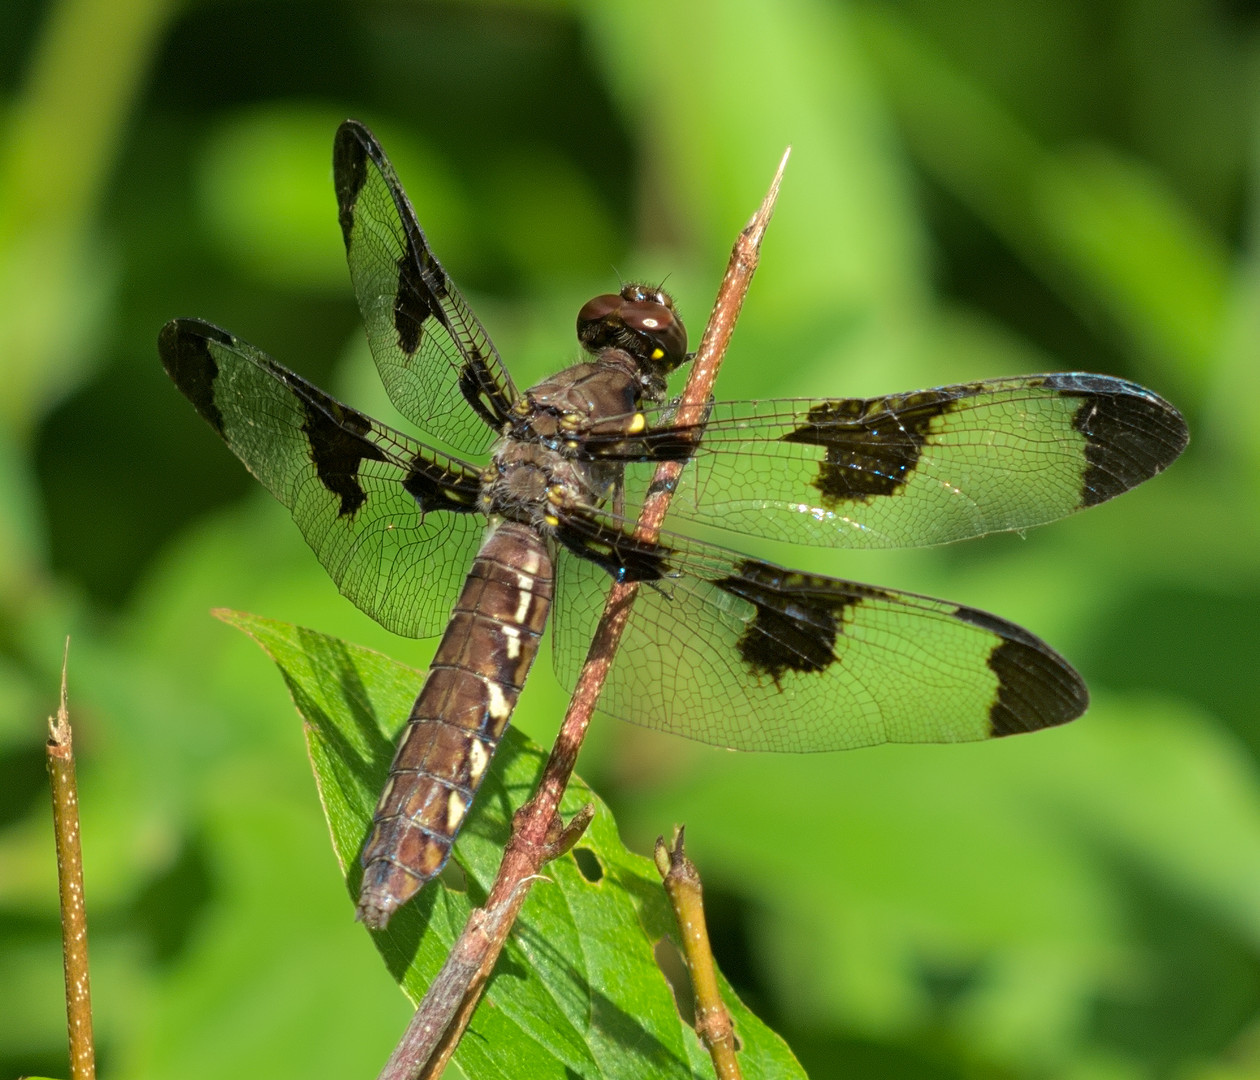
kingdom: Animalia
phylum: Arthropoda
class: Insecta
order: Odonata
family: Libellulidae
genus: Plathemis
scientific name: Plathemis lydia
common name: Common whitetail
